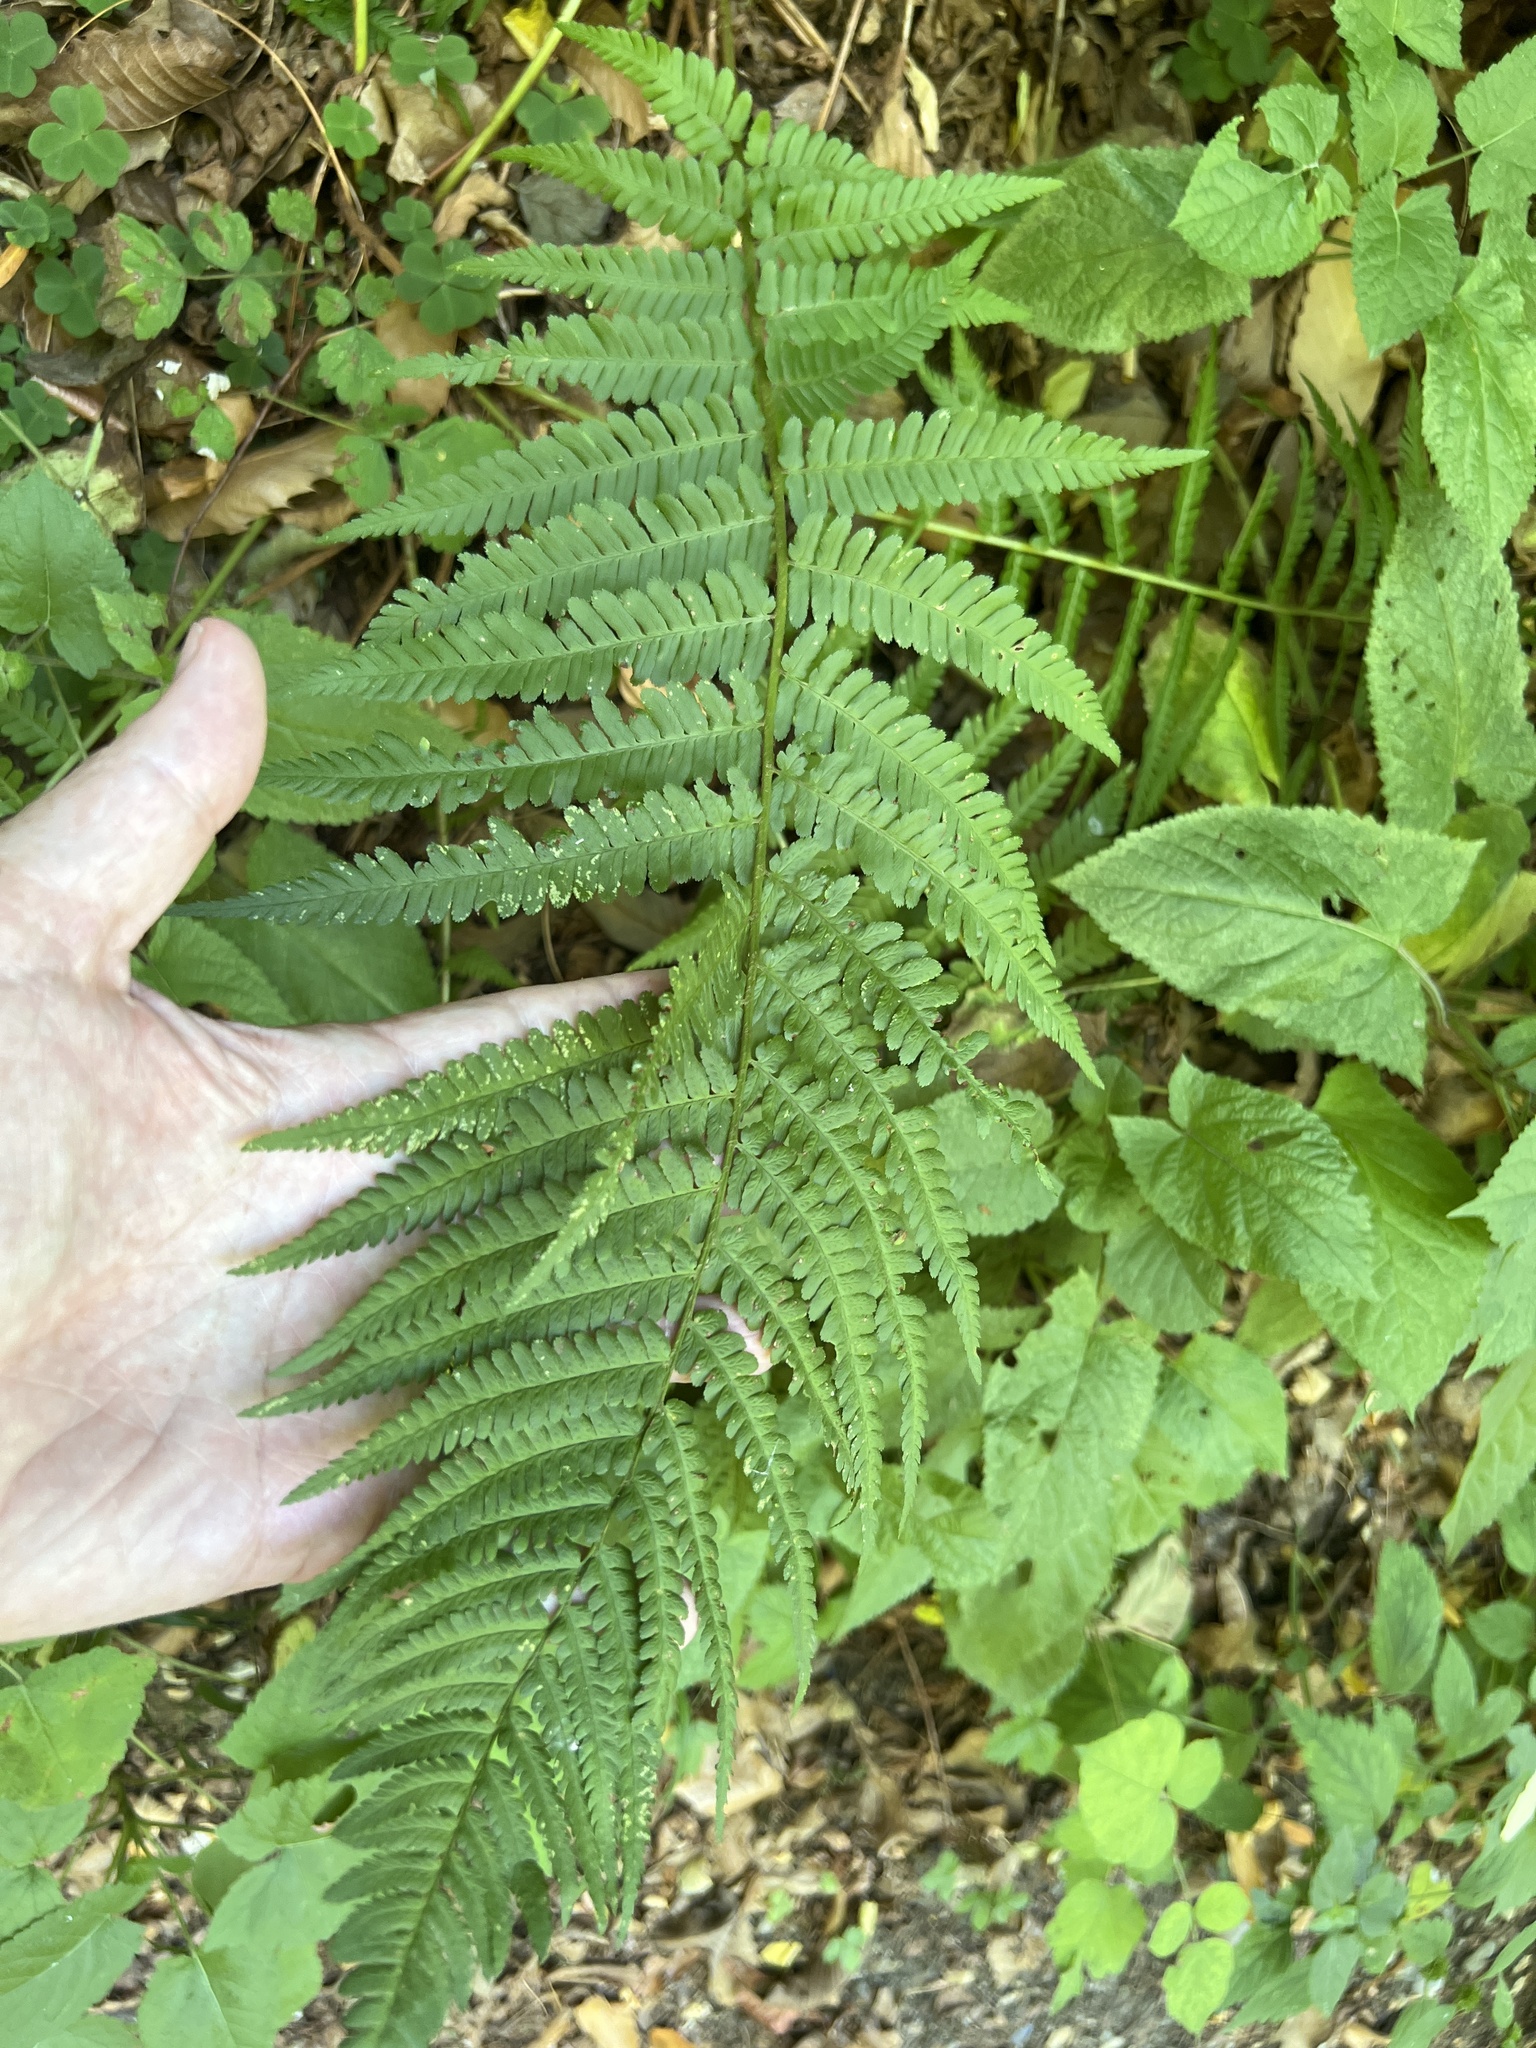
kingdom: Plantae
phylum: Tracheophyta
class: Polypodiopsida
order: Polypodiales
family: Dryopteridaceae
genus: Dryopteris
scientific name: Dryopteris filix-mas
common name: Male fern
